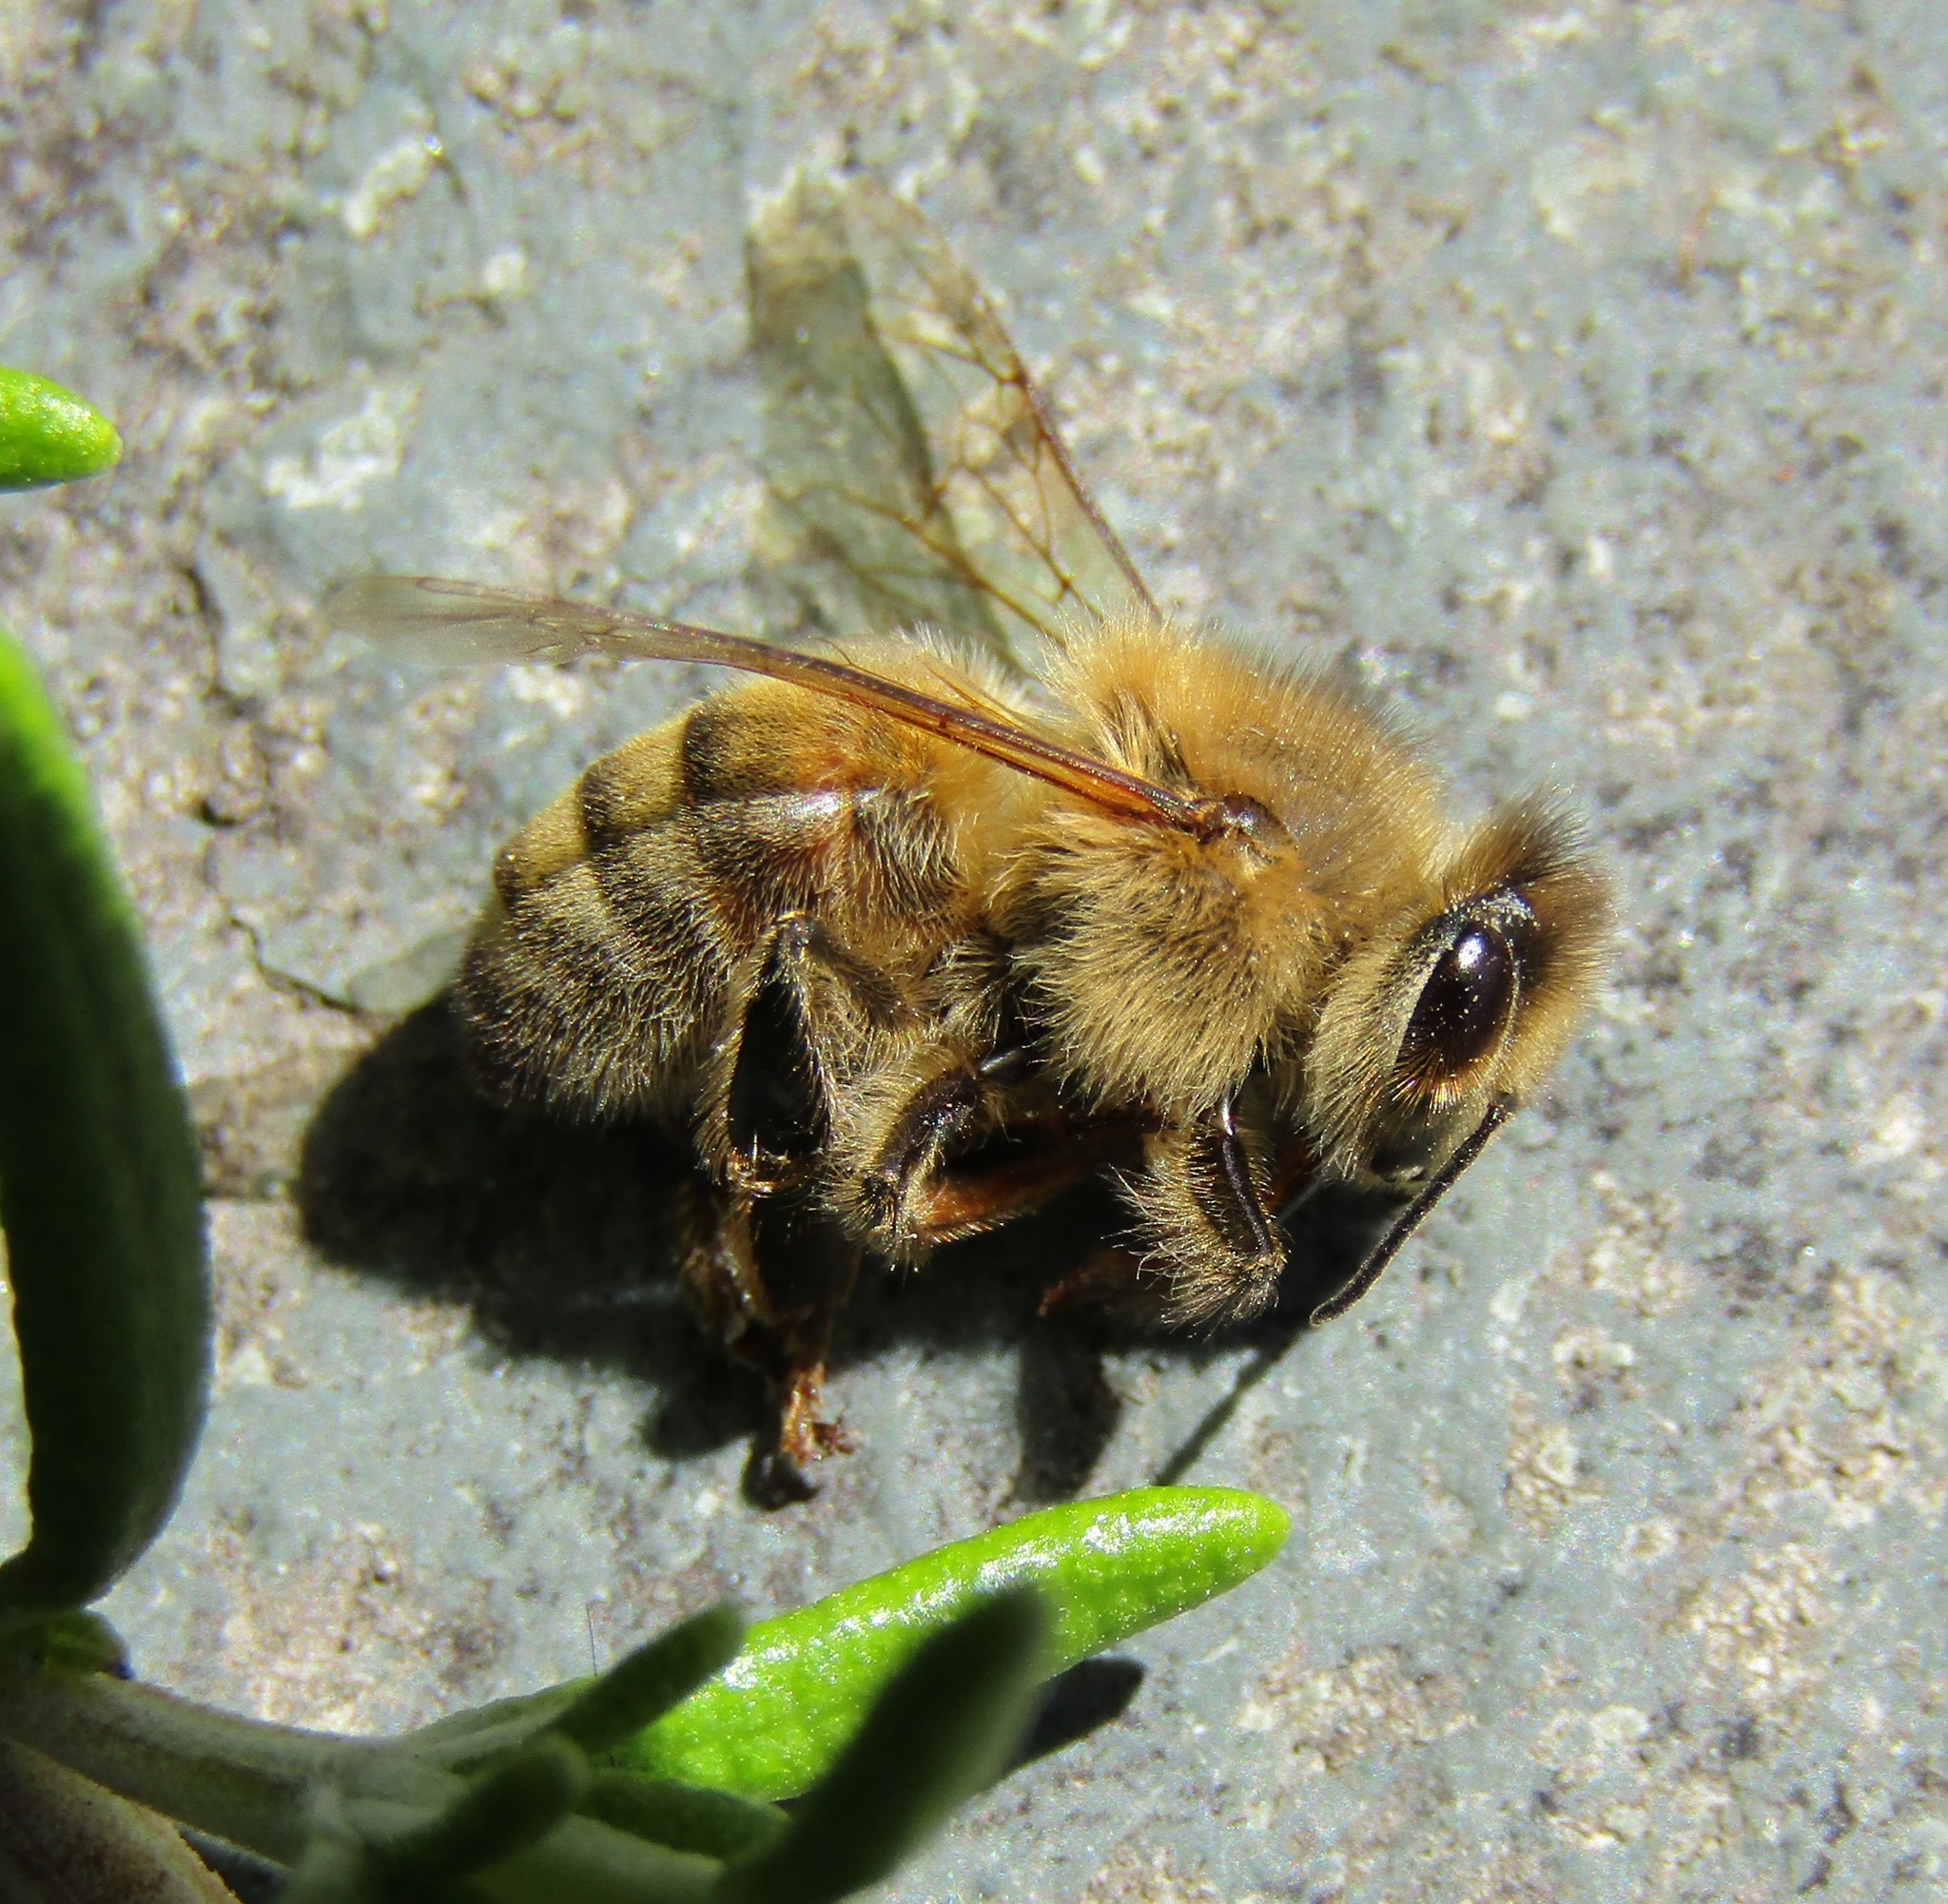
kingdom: Animalia
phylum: Arthropoda
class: Insecta
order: Hymenoptera
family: Apidae
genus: Apis
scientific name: Apis mellifera
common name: Honey bee
